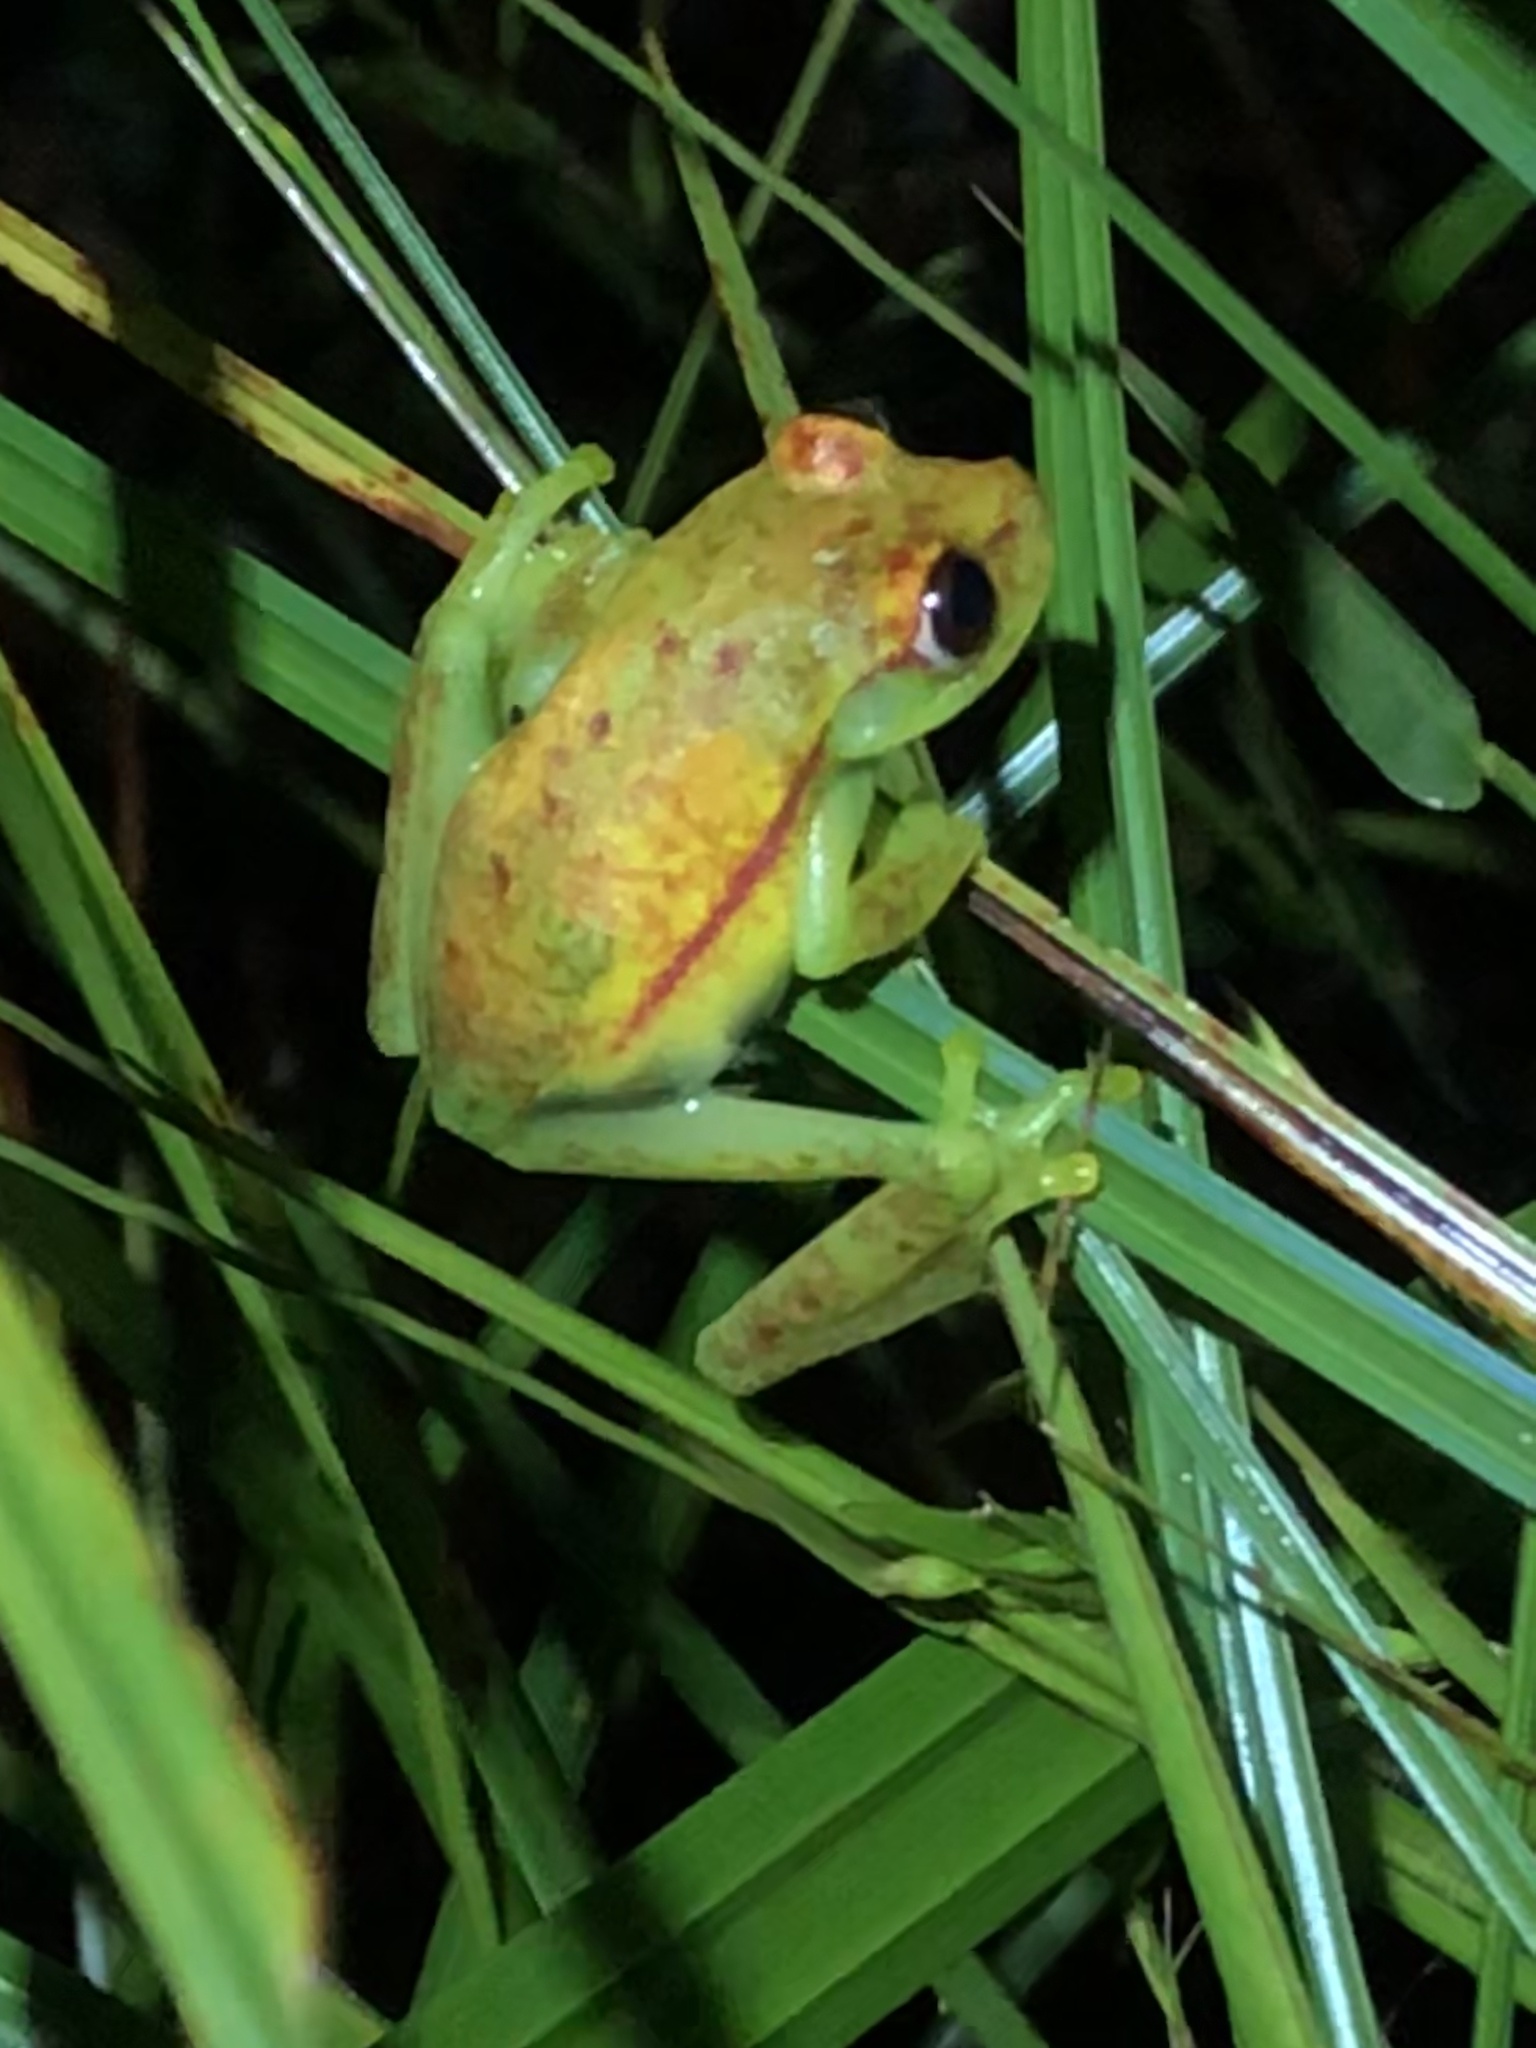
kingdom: Animalia
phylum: Chordata
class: Amphibia
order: Anura
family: Hylidae
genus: Boana
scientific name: Boana punctata
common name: Polka-dot treefrog
